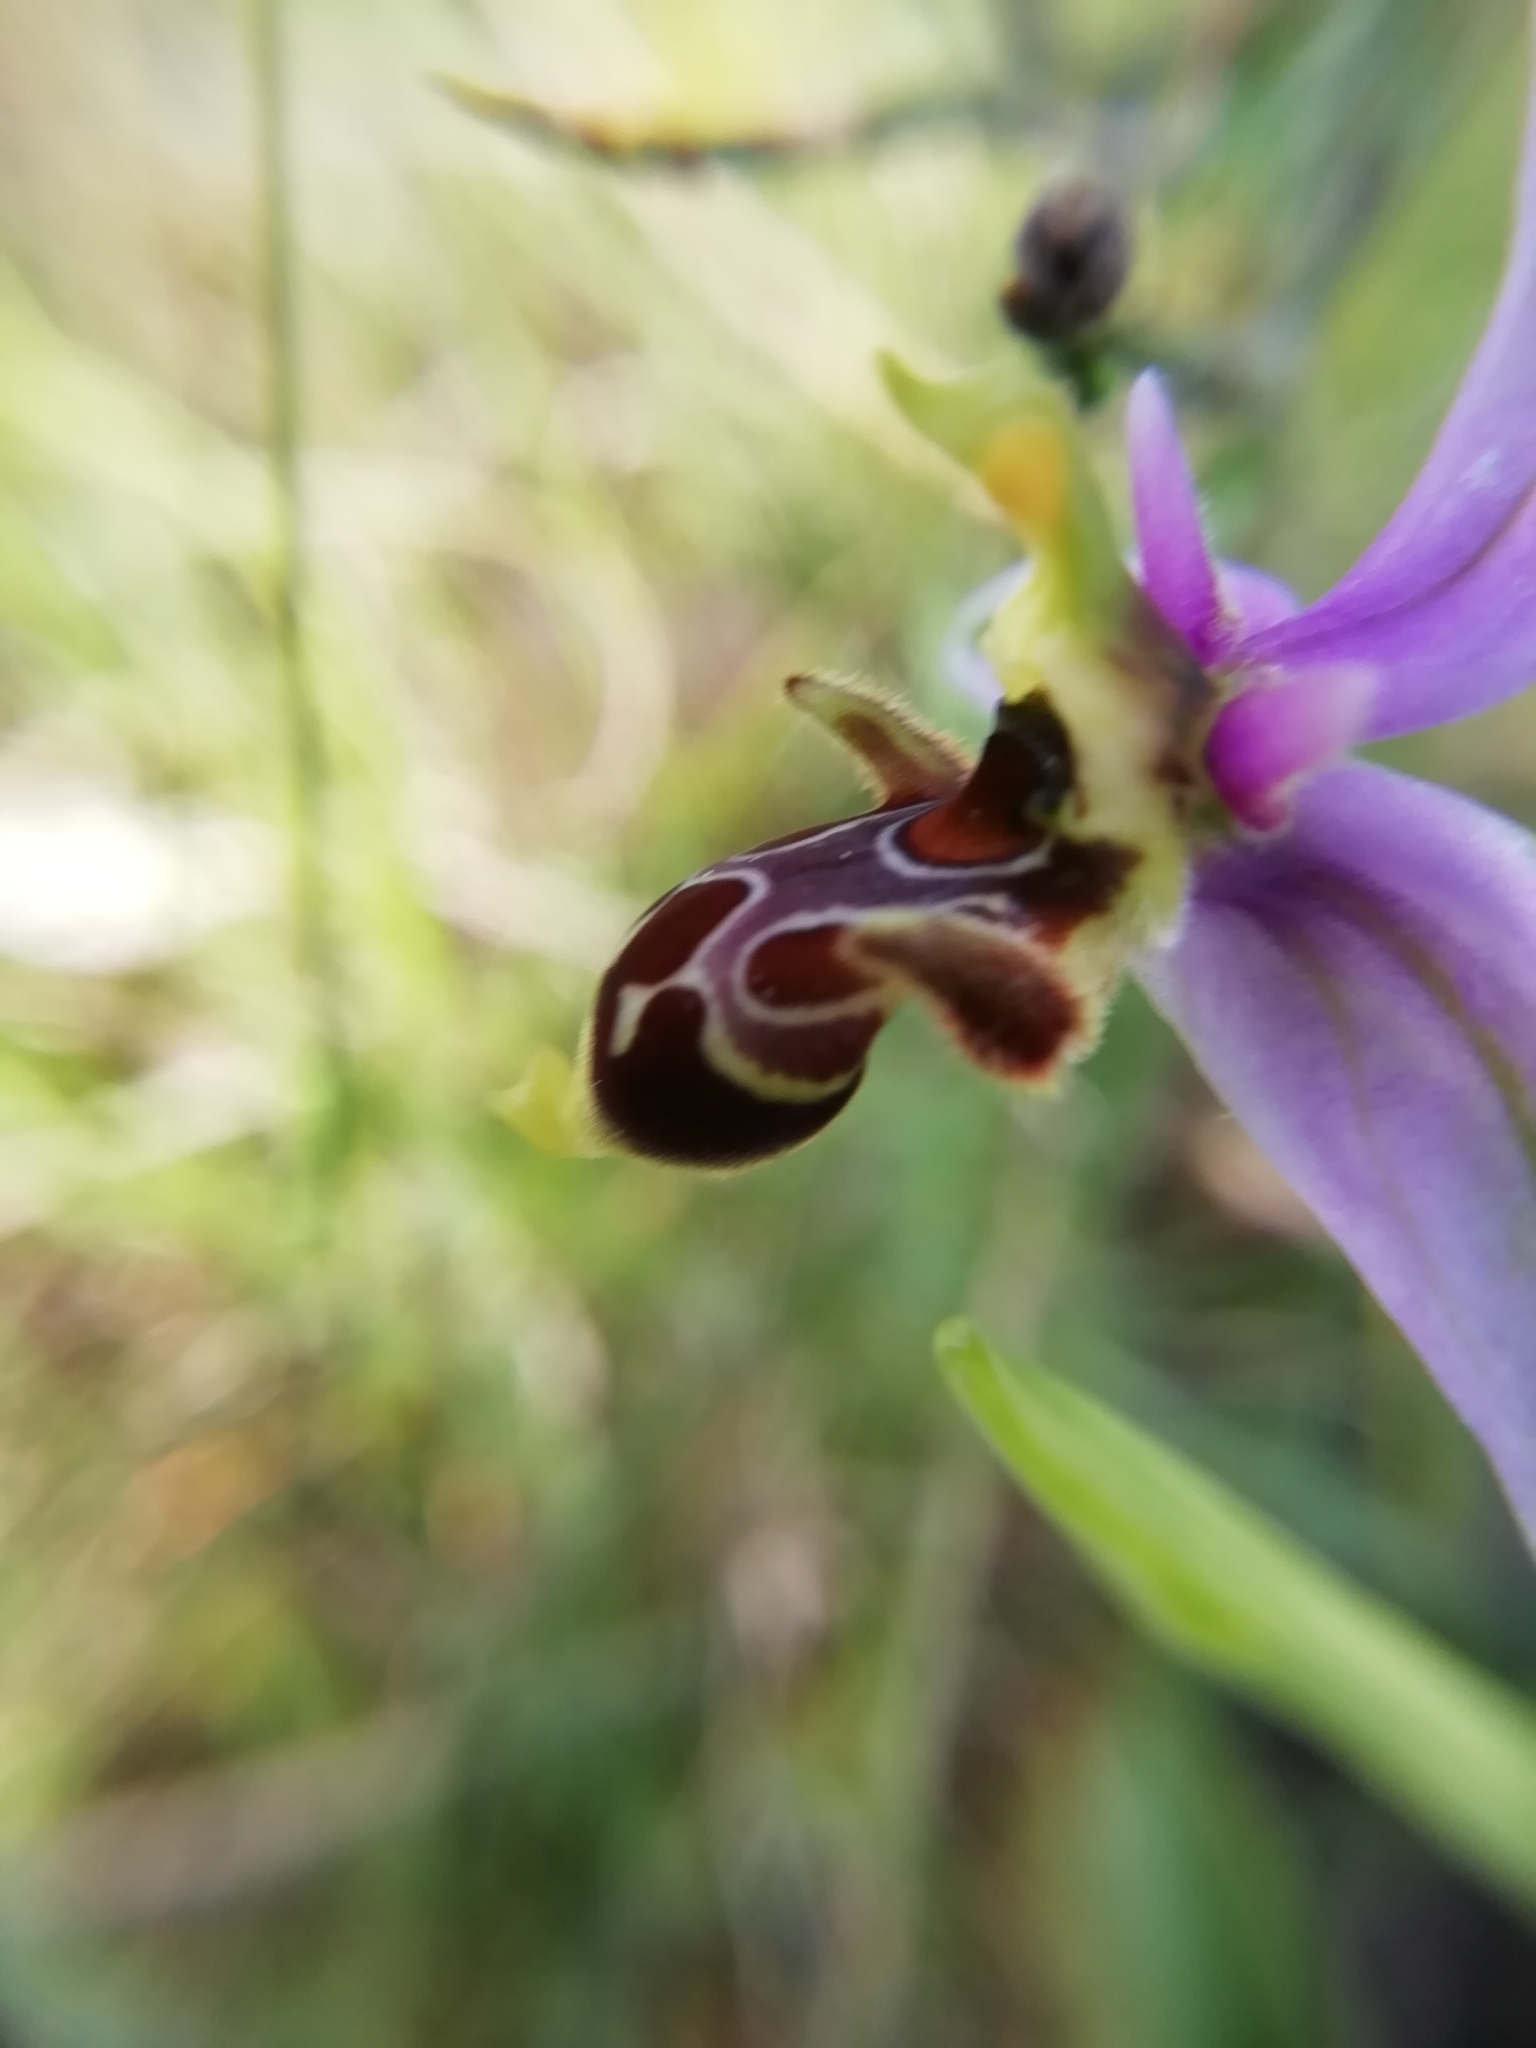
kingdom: Plantae
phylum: Tracheophyta
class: Liliopsida
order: Asparagales
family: Orchidaceae
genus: Ophrys
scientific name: Ophrys scolopax
